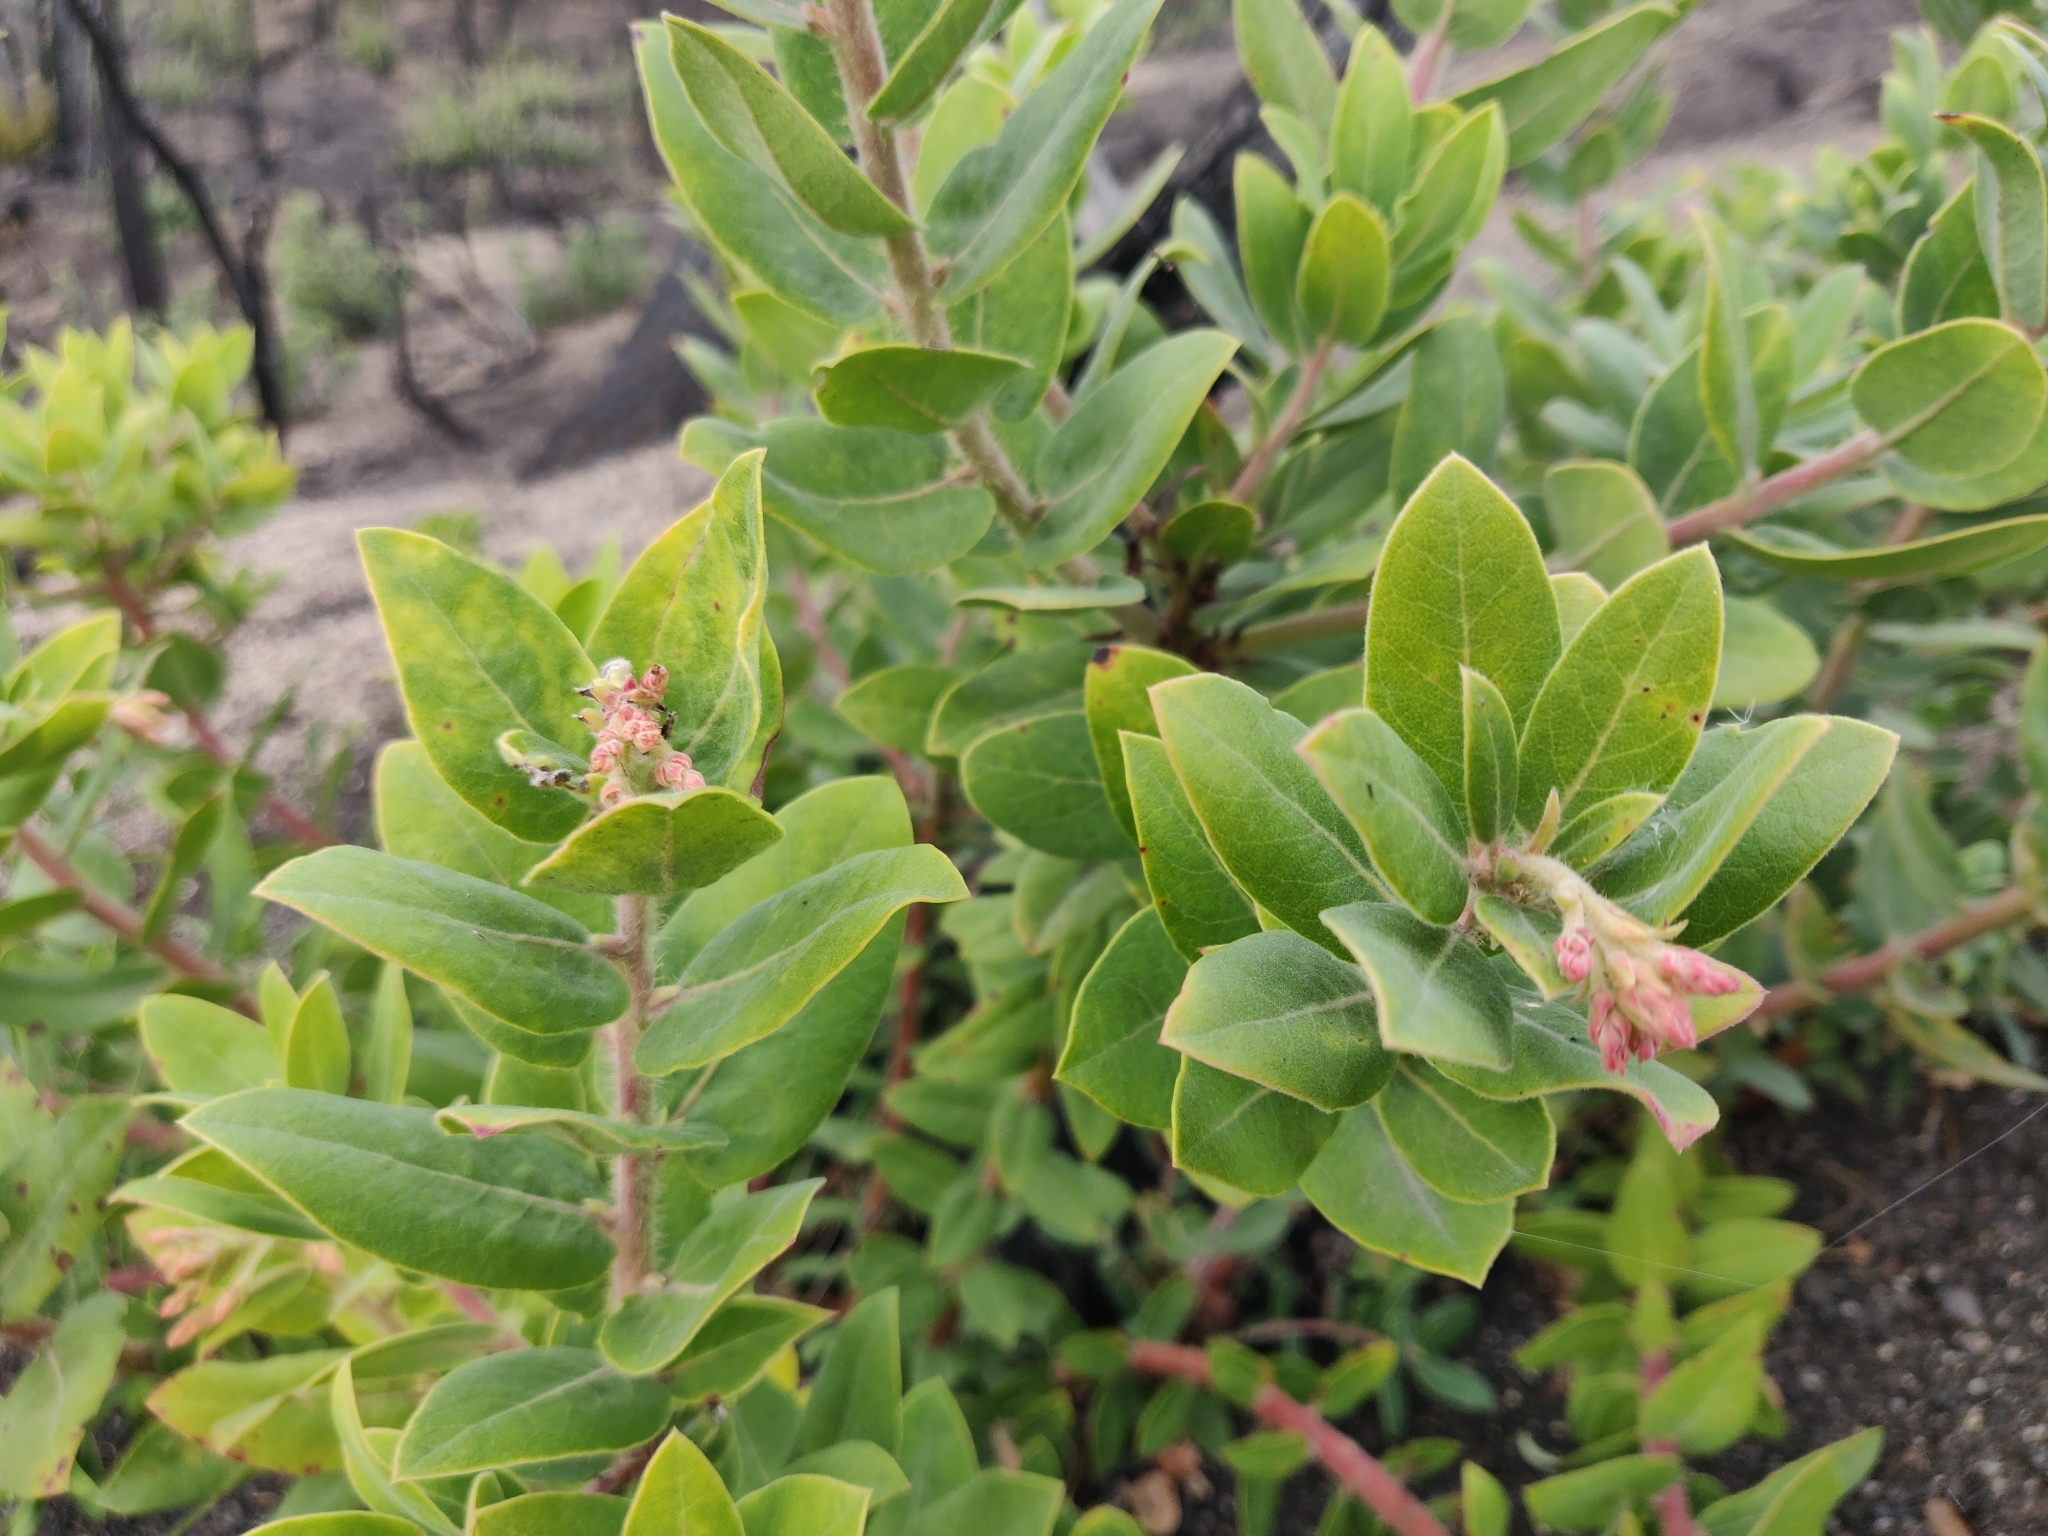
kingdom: Plantae
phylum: Tracheophyta
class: Magnoliopsida
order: Ericales
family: Ericaceae
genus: Arctostaphylos
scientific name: Arctostaphylos crustacea
